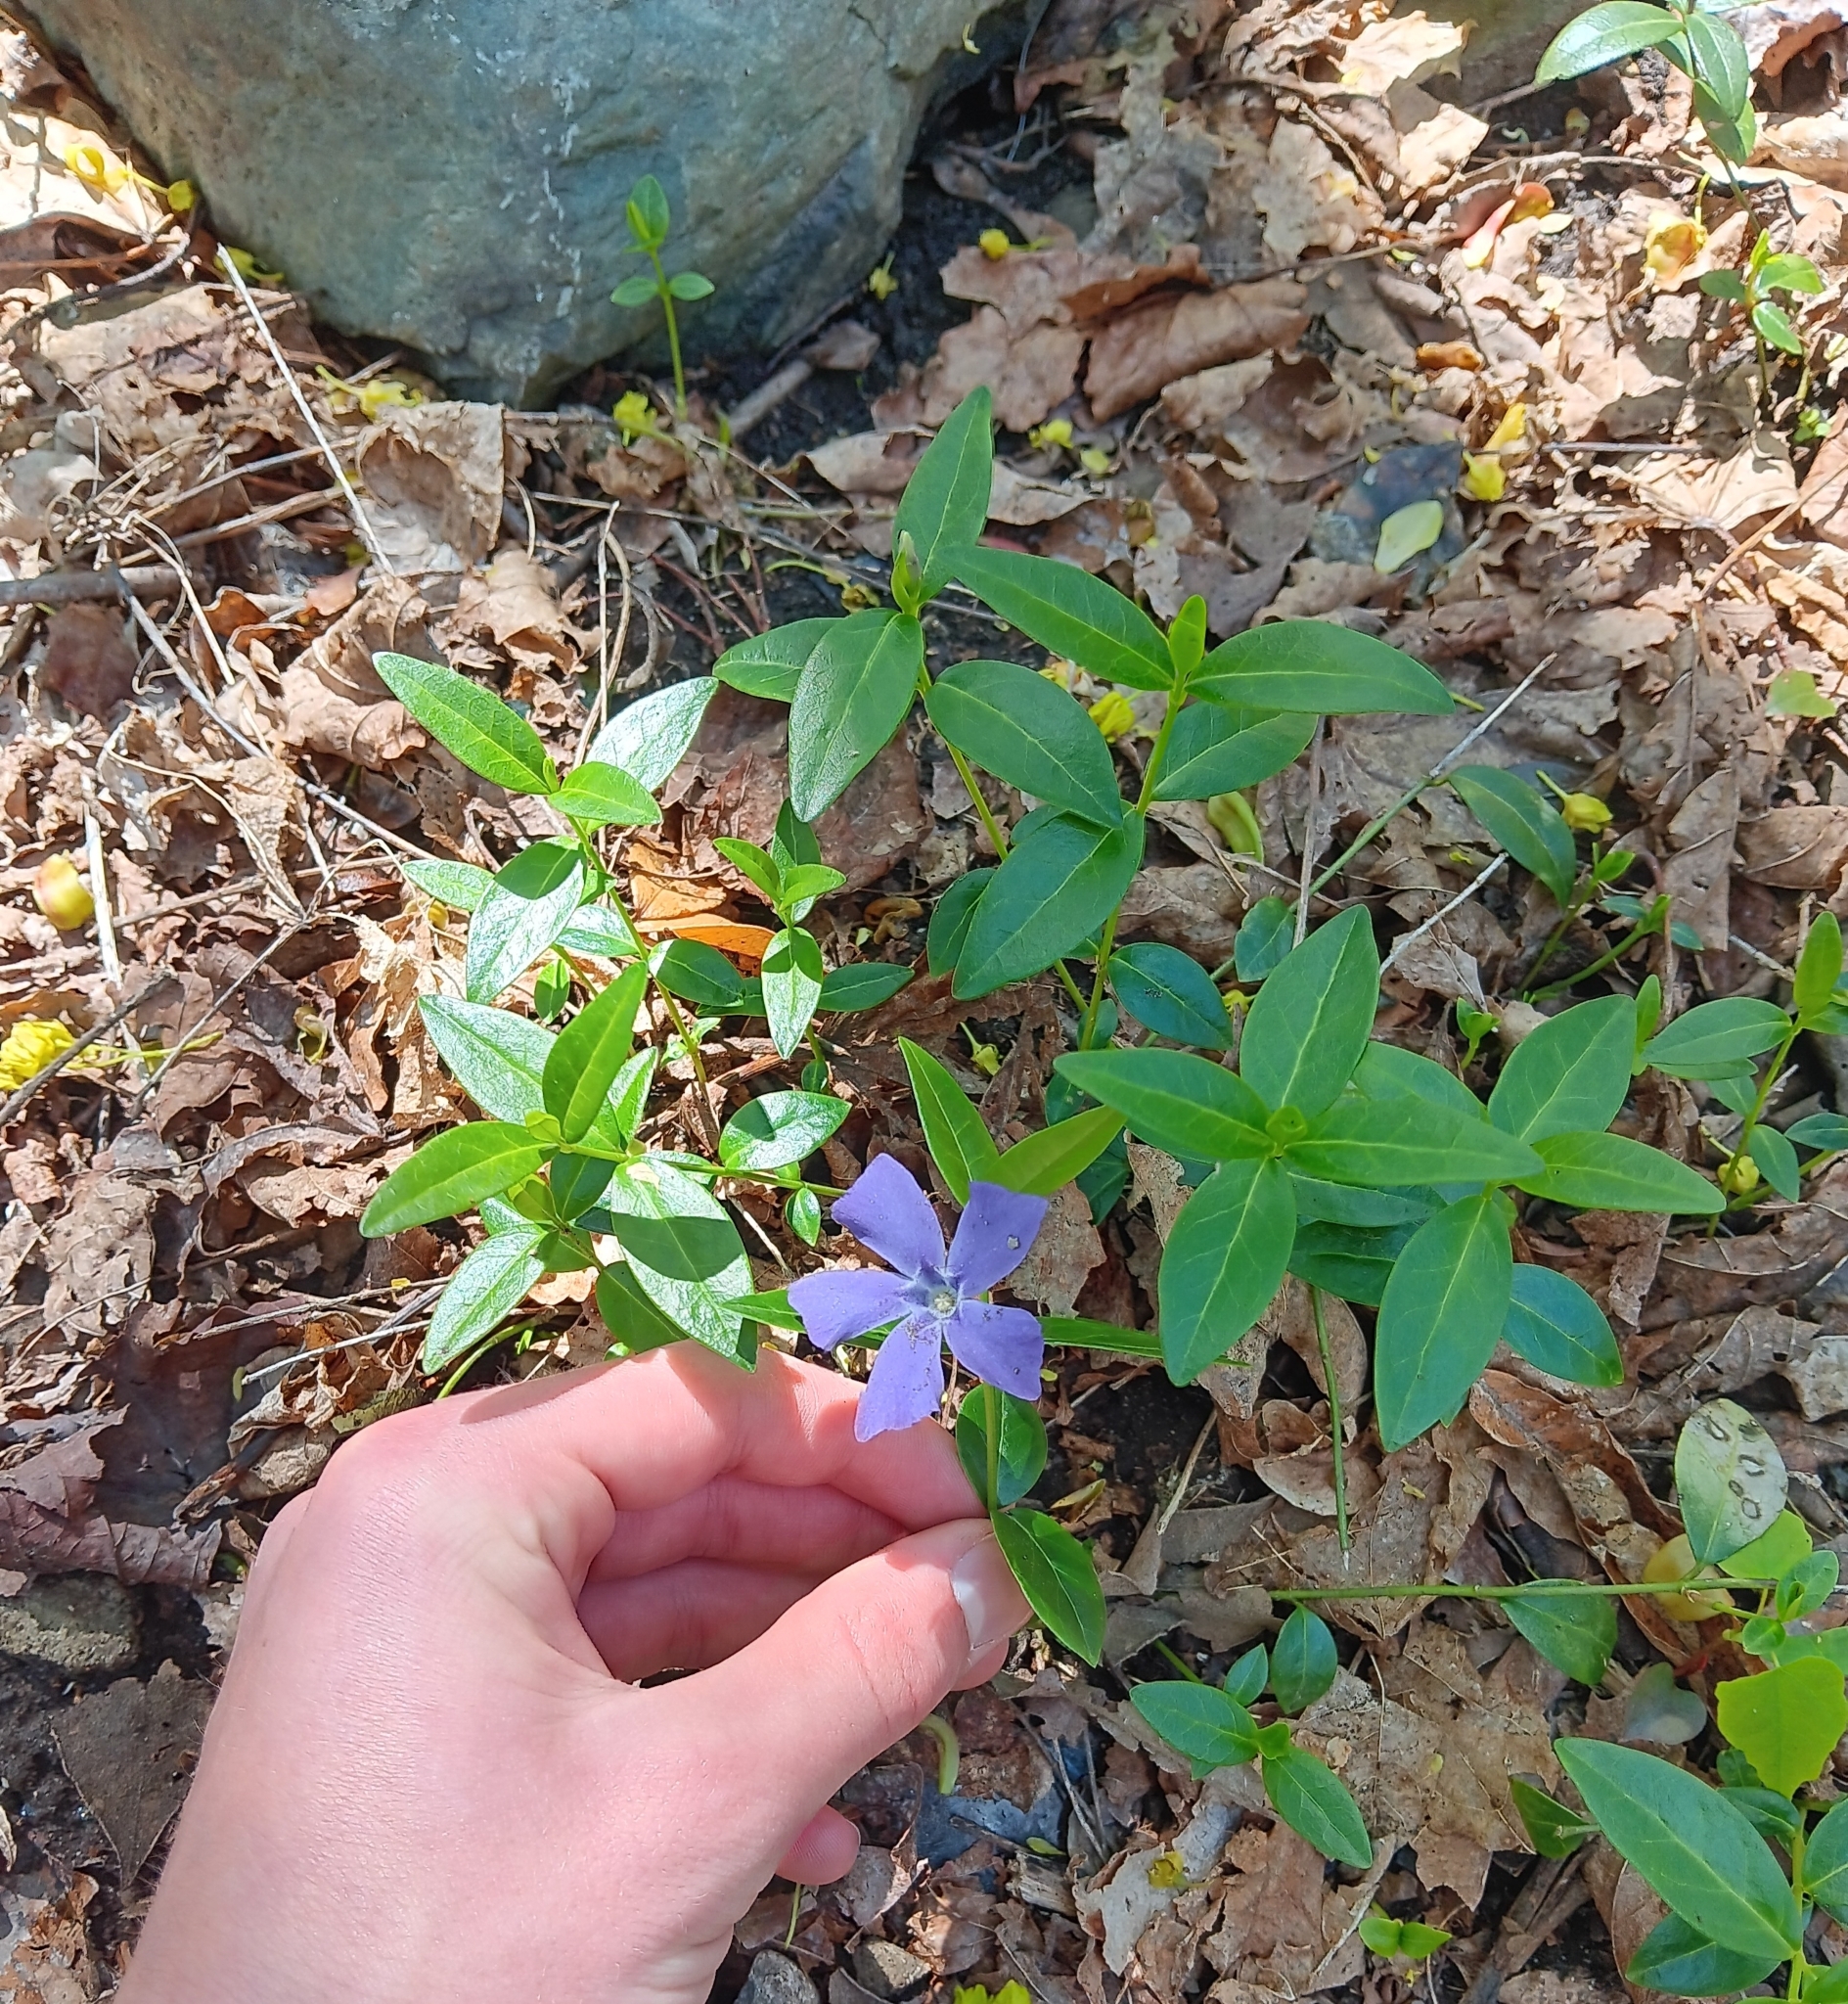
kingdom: Plantae
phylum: Tracheophyta
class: Magnoliopsida
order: Gentianales
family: Apocynaceae
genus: Vinca
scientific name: Vinca minor
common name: Lesser periwinkle
